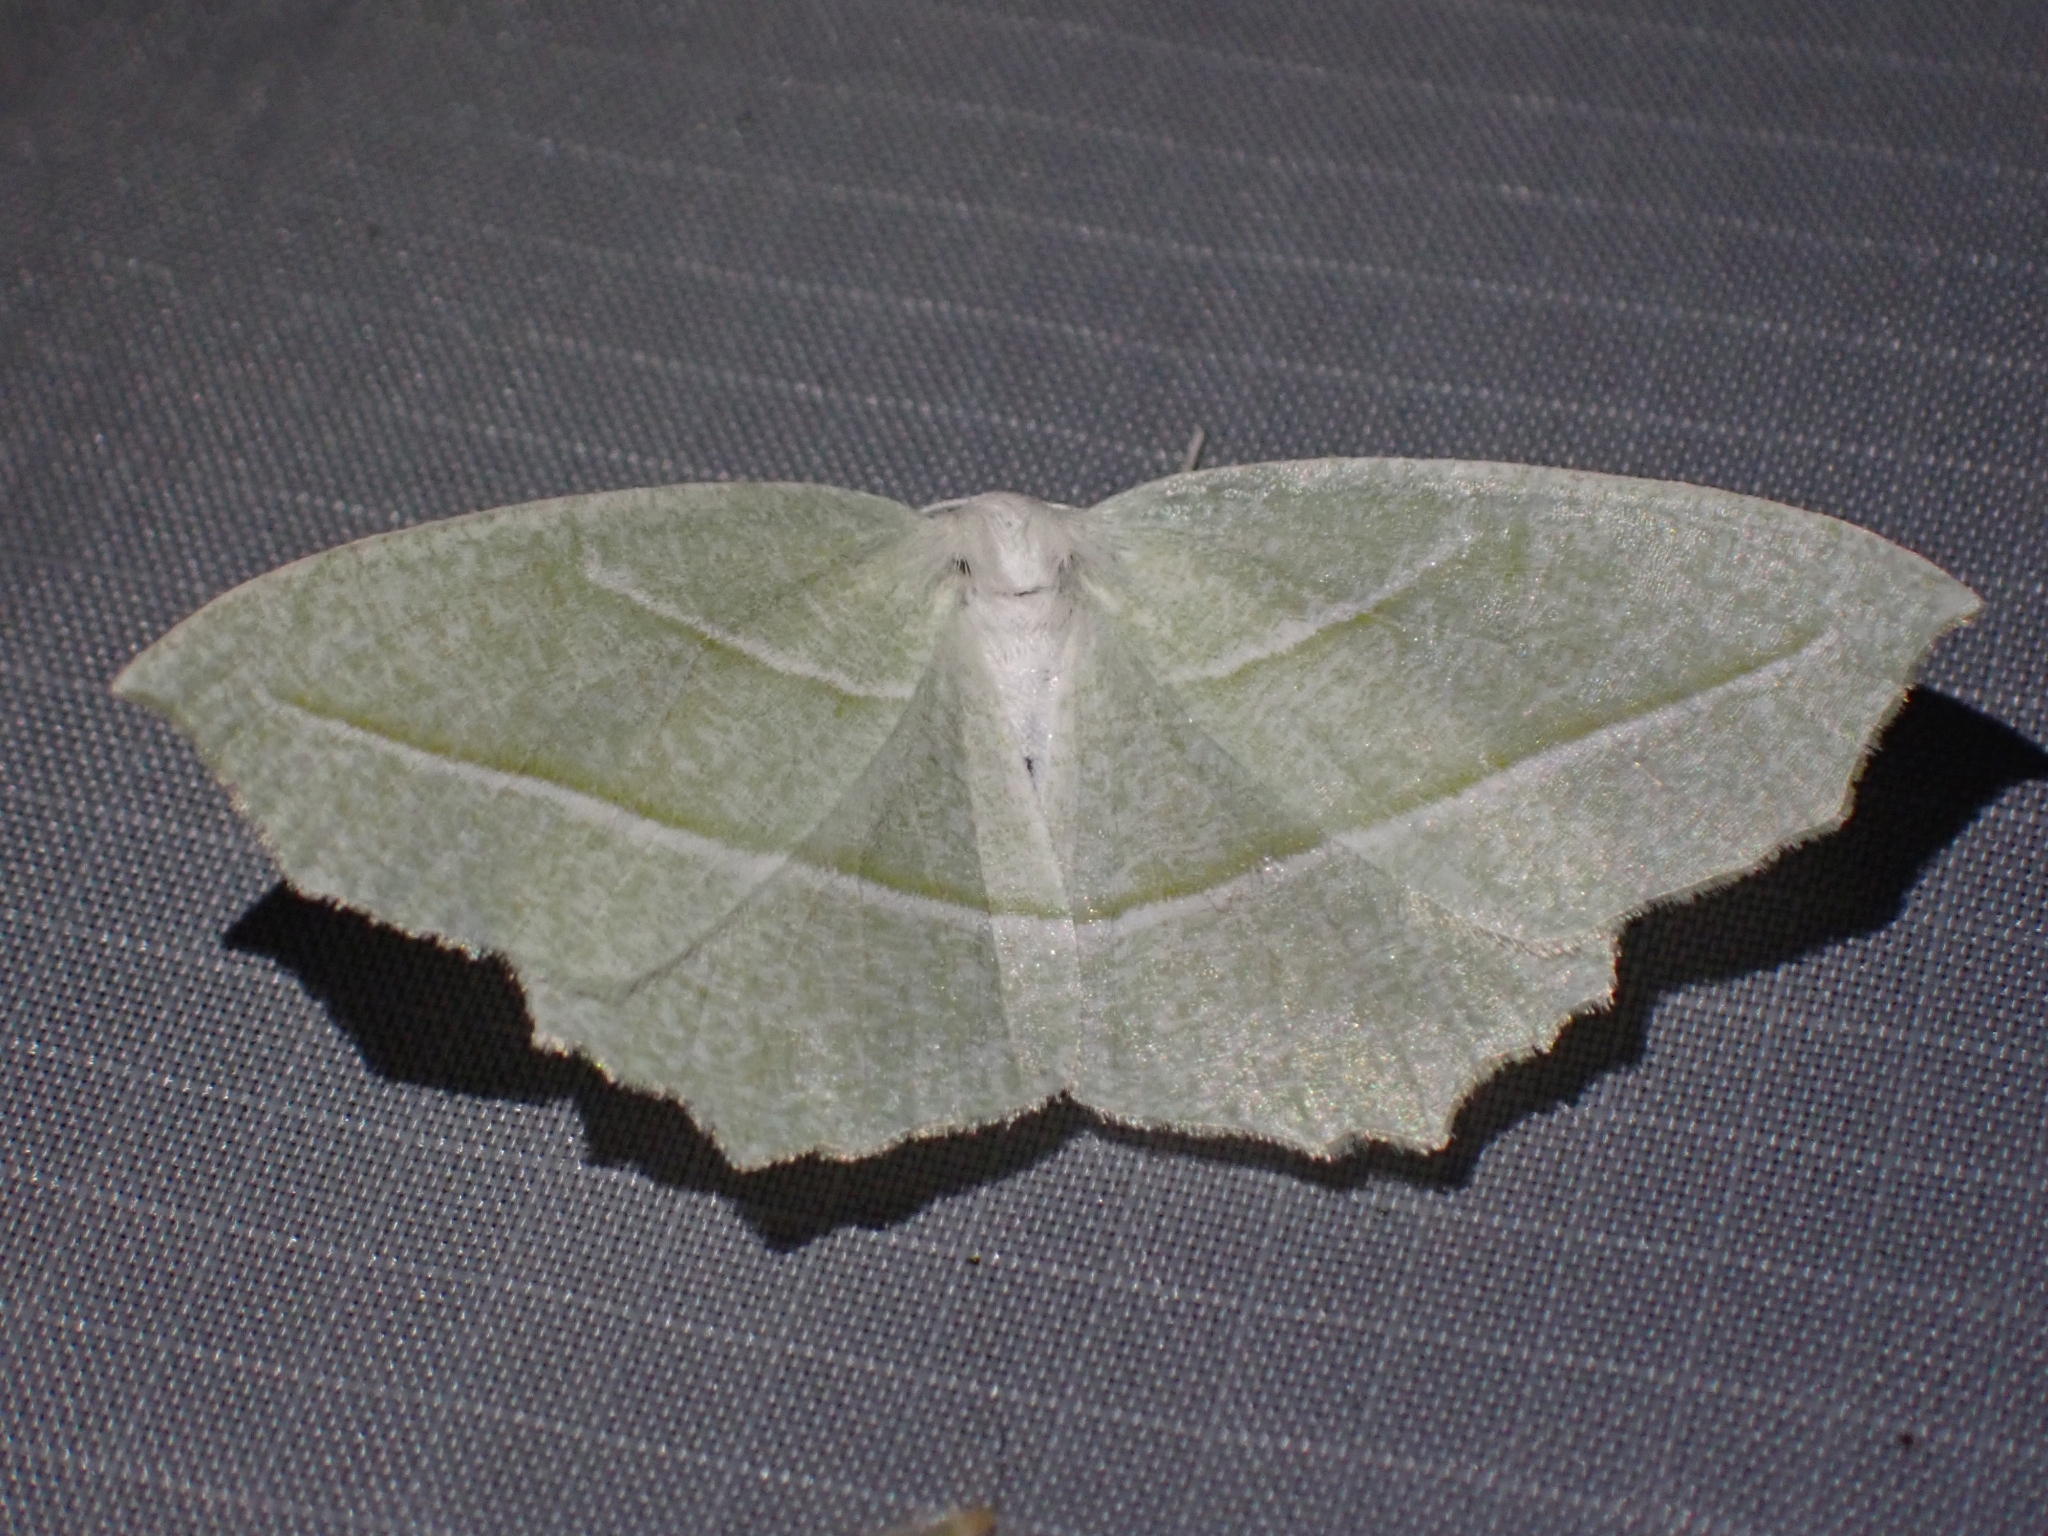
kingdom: Animalia
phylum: Arthropoda
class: Insecta
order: Lepidoptera
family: Geometridae
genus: Campaea
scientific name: Campaea perlata
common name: Fringed looper
